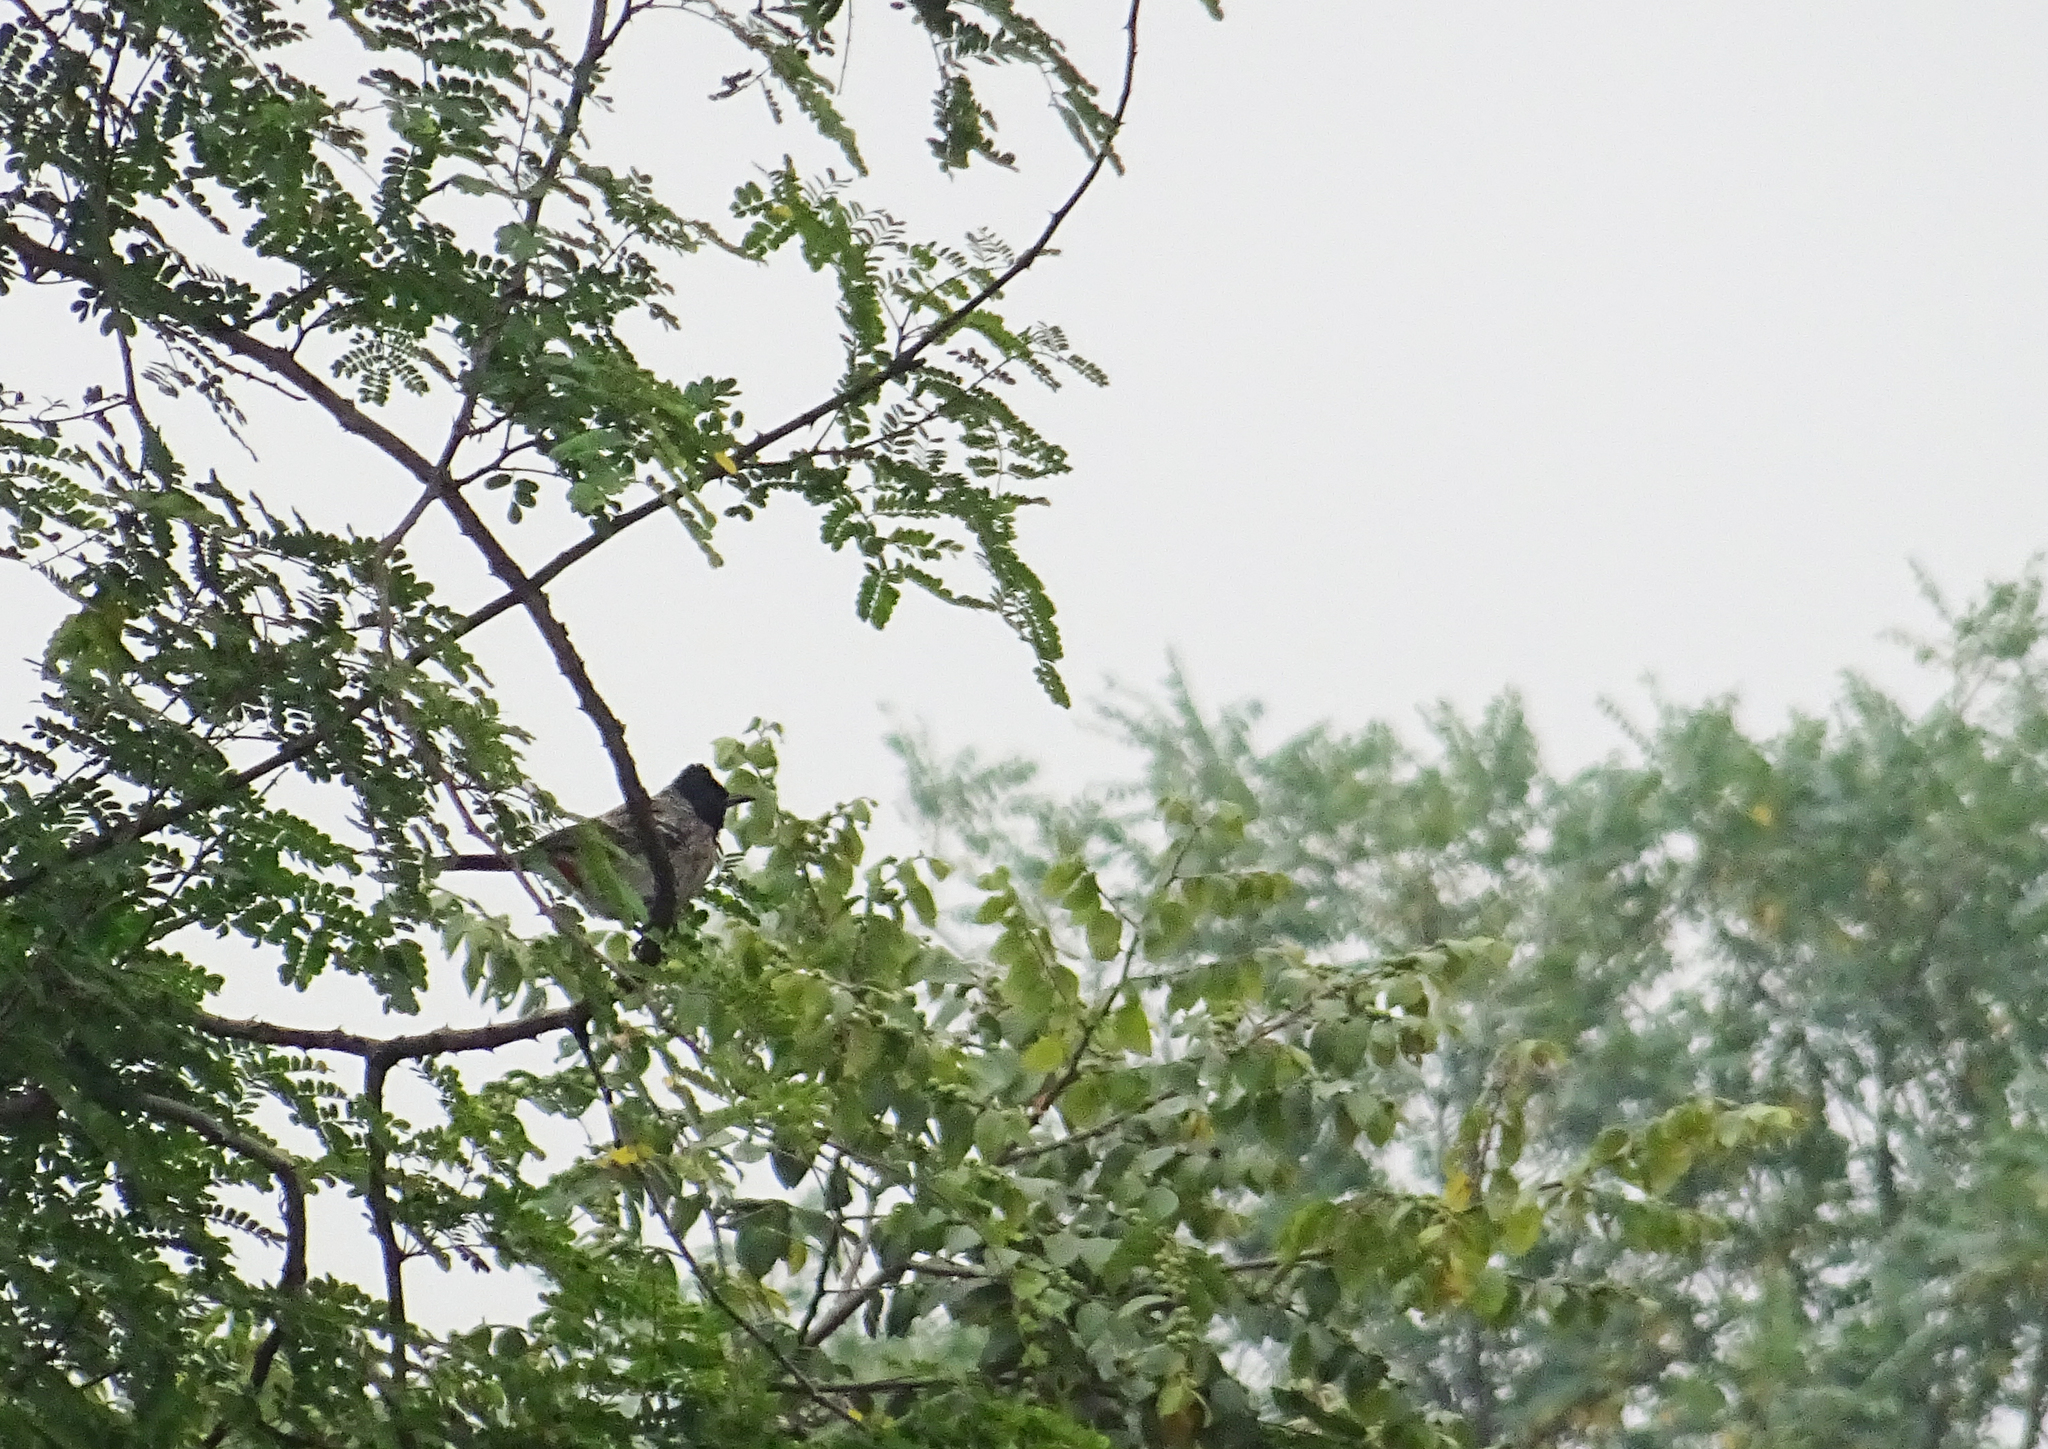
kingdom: Animalia
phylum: Chordata
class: Aves
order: Passeriformes
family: Pycnonotidae
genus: Pycnonotus
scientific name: Pycnonotus cafer
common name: Red-vented bulbul
